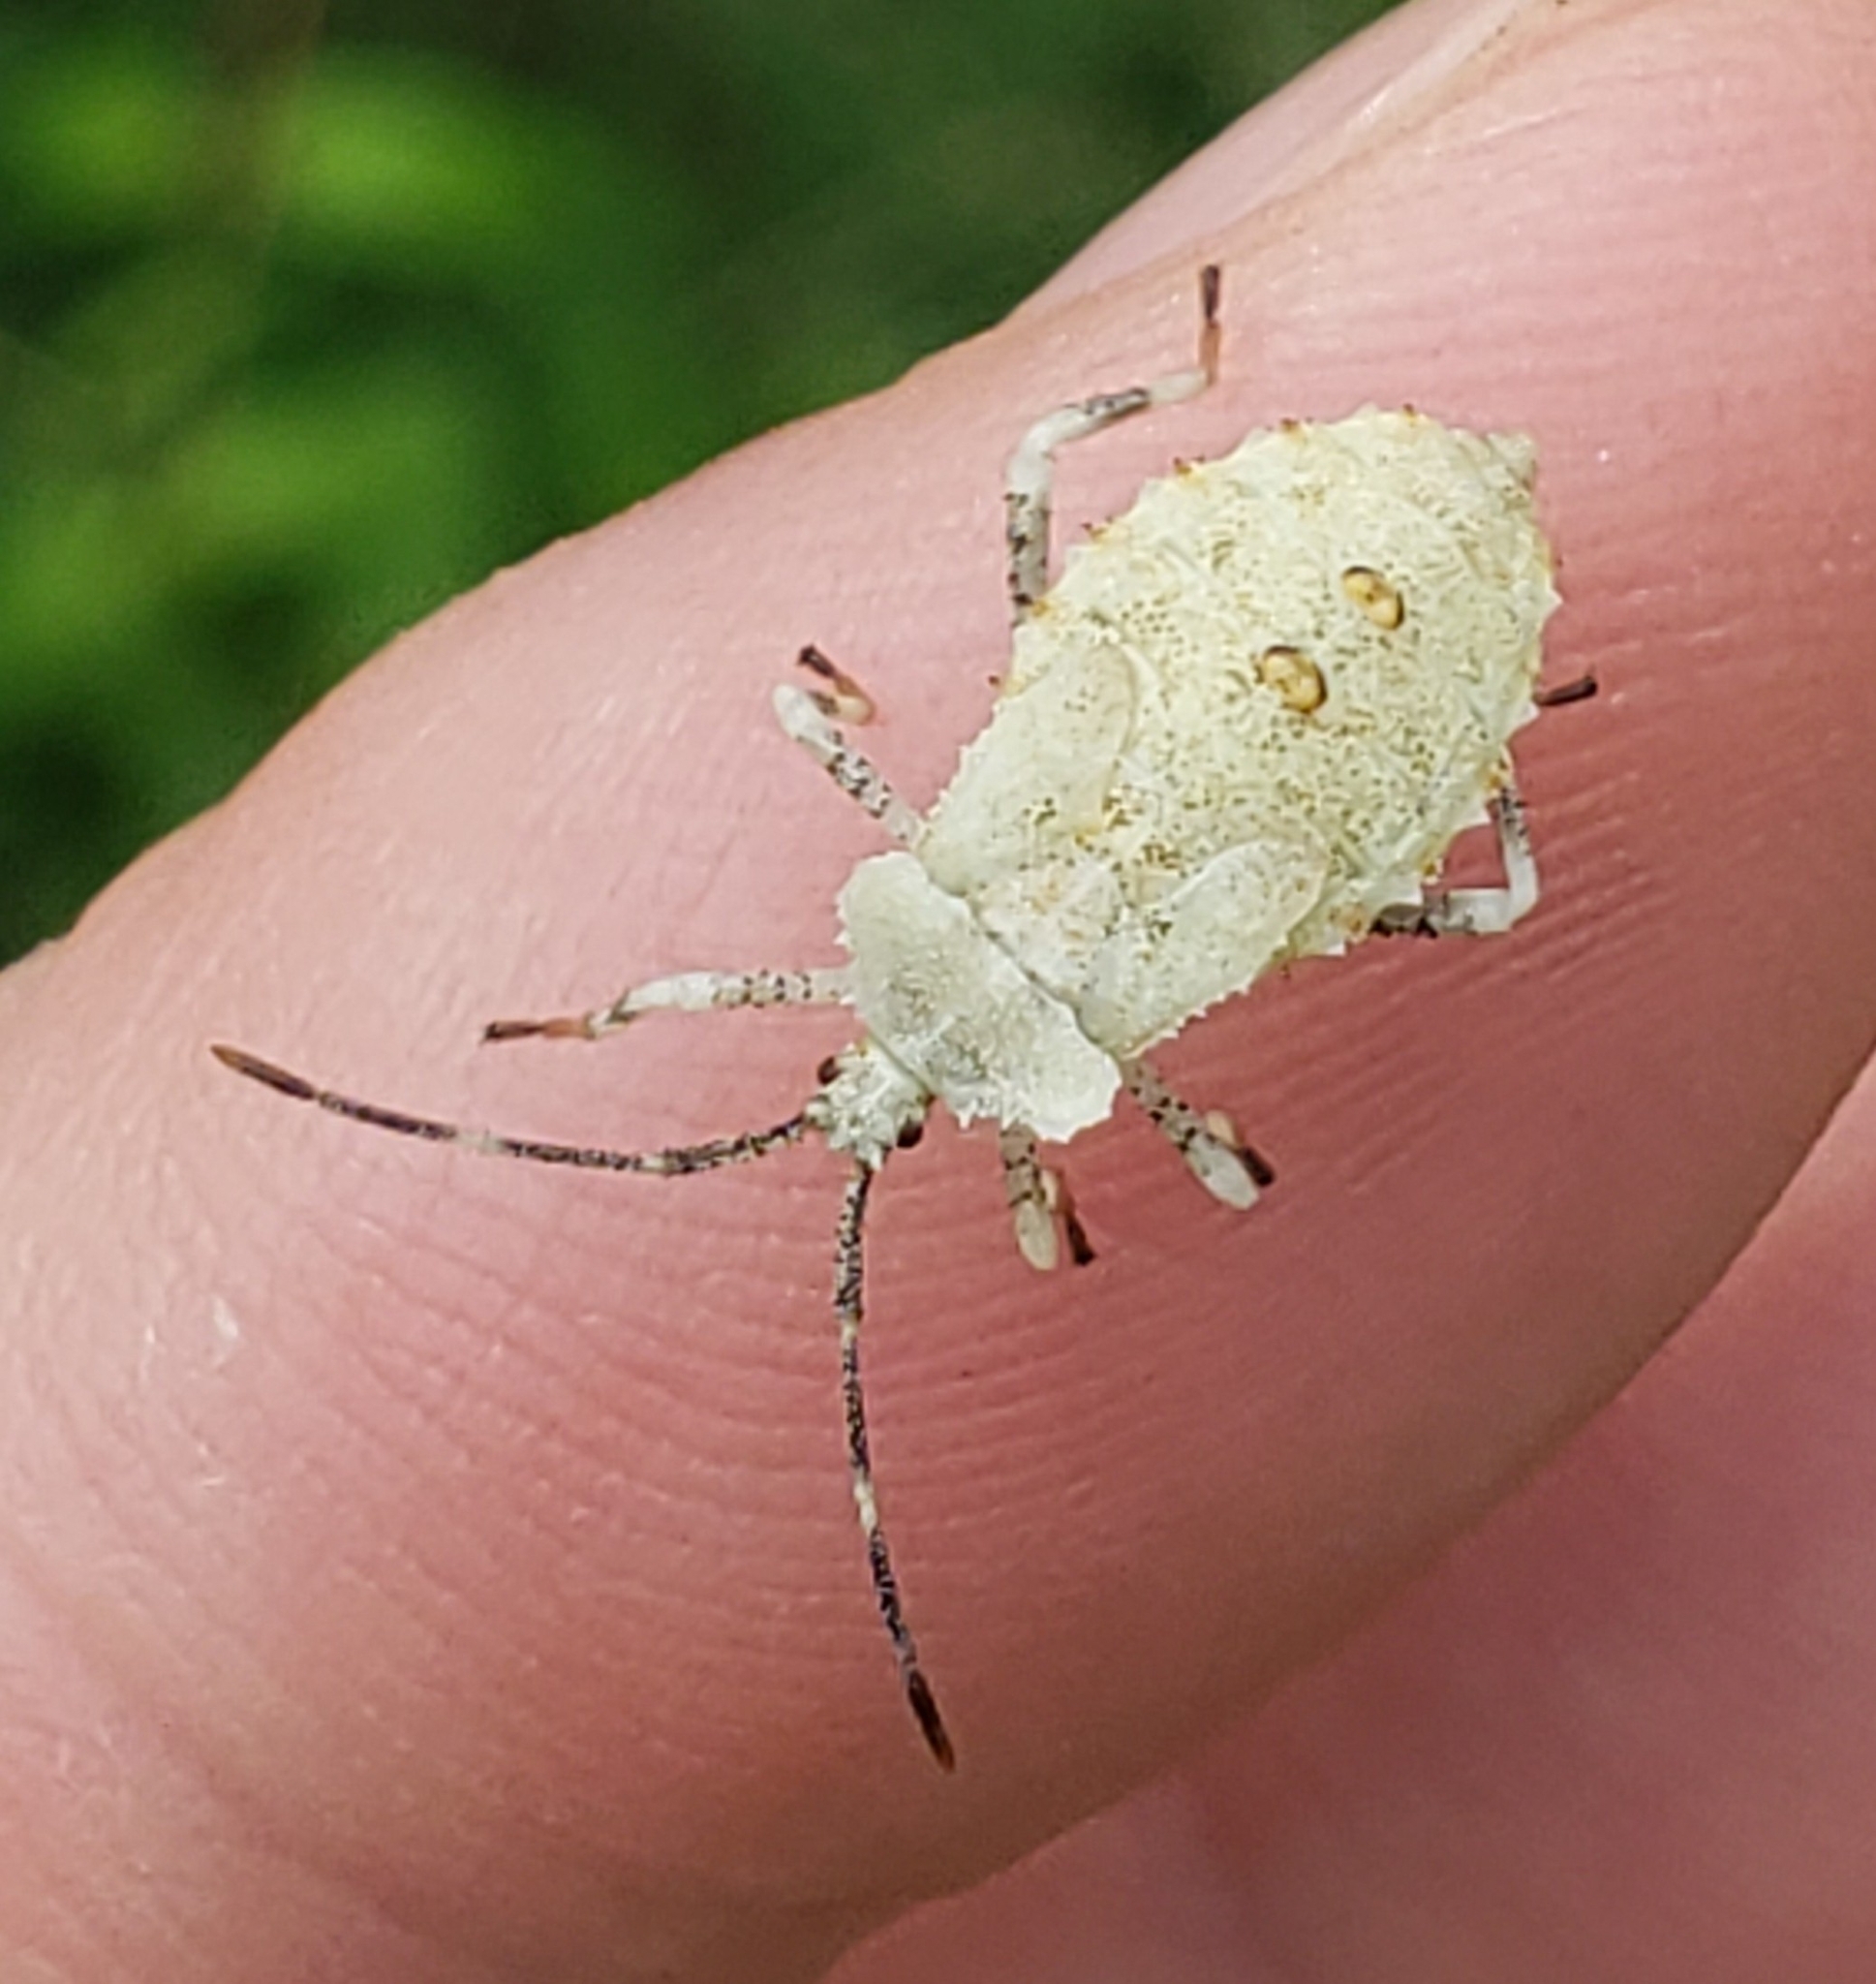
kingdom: Animalia
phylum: Arthropoda
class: Insecta
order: Hemiptera
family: Coreidae
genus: Anasa
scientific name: Anasa armigera
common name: Horned squash bug
